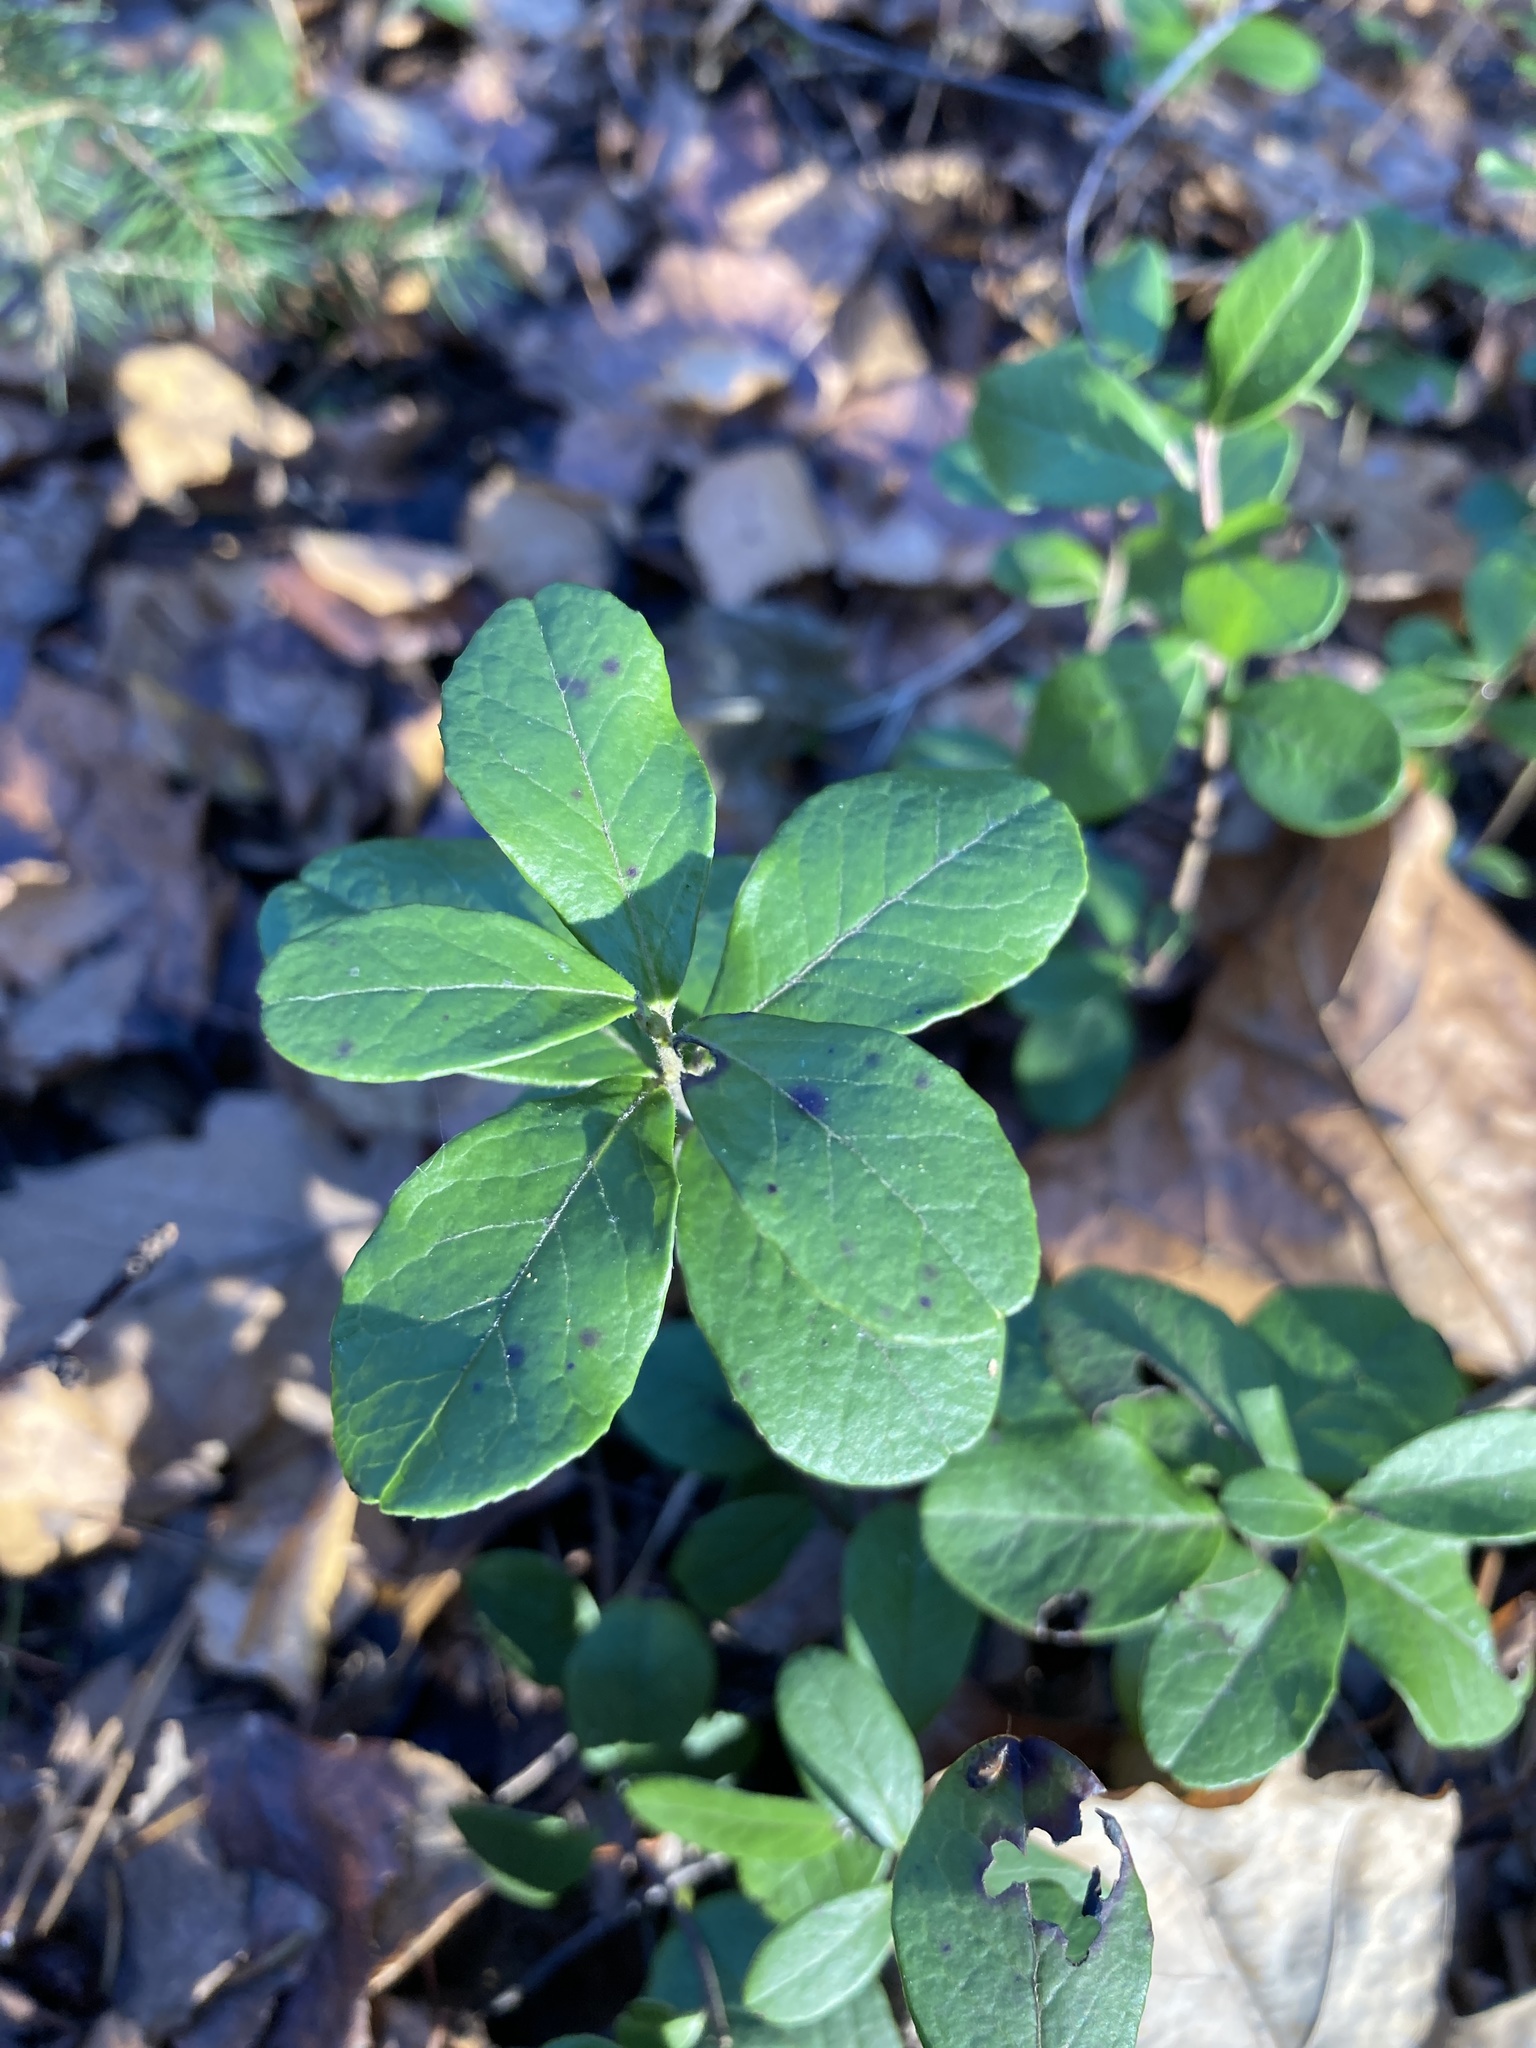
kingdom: Plantae
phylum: Tracheophyta
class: Magnoliopsida
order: Ericales
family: Ericaceae
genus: Vaccinium
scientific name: Vaccinium vitis-idaea
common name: Cowberry
